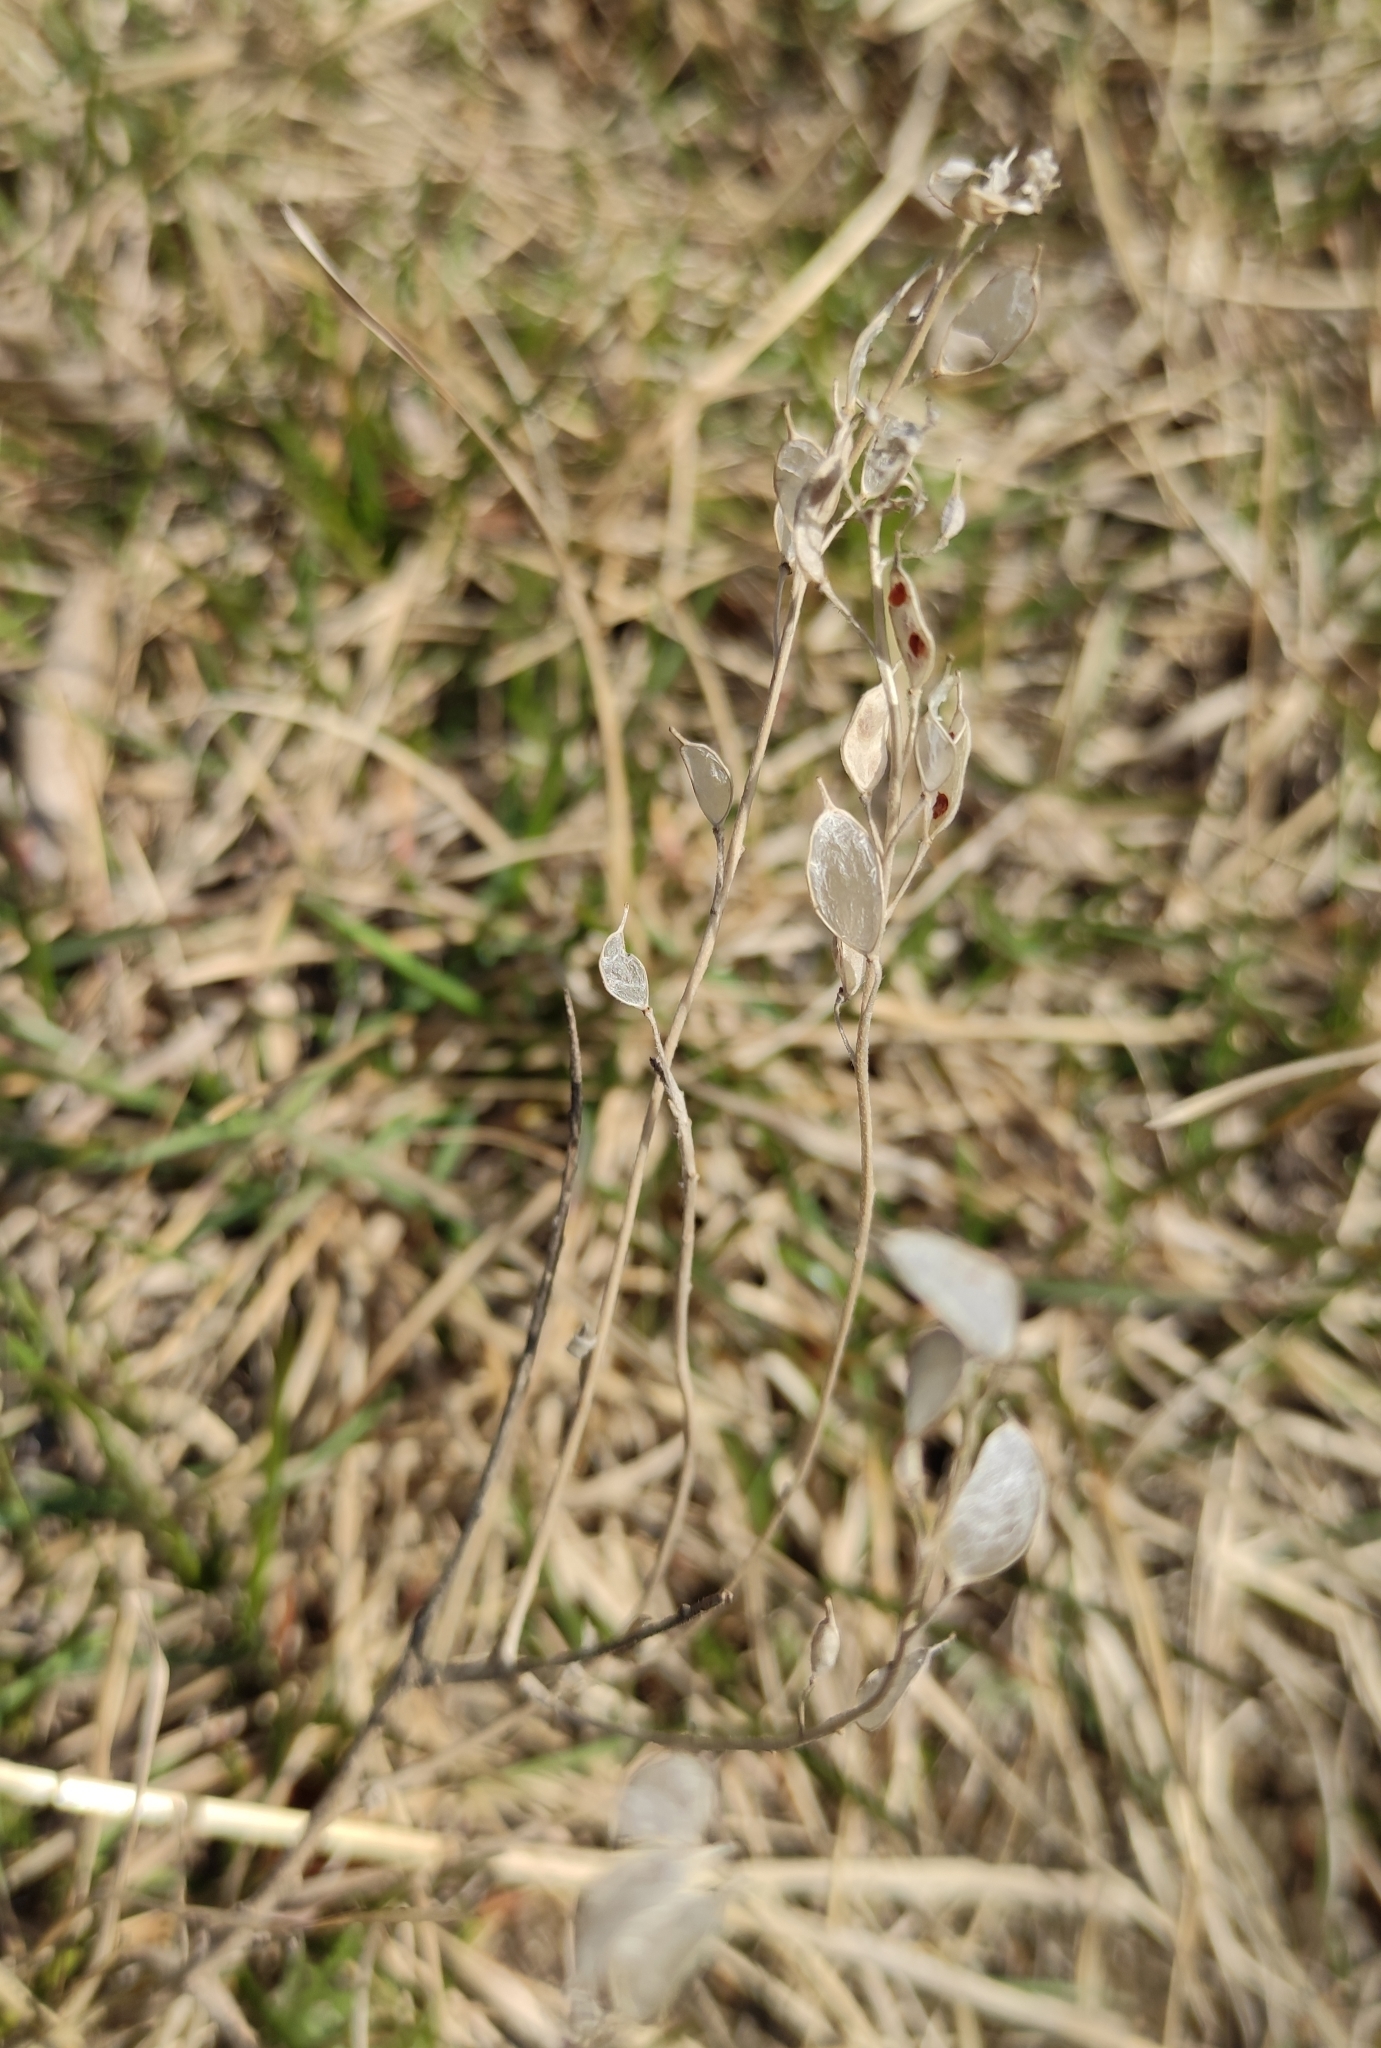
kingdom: Plantae
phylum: Tracheophyta
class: Magnoliopsida
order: Brassicales
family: Brassicaceae
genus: Berteroa
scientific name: Berteroa incana
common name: Hoary alison
